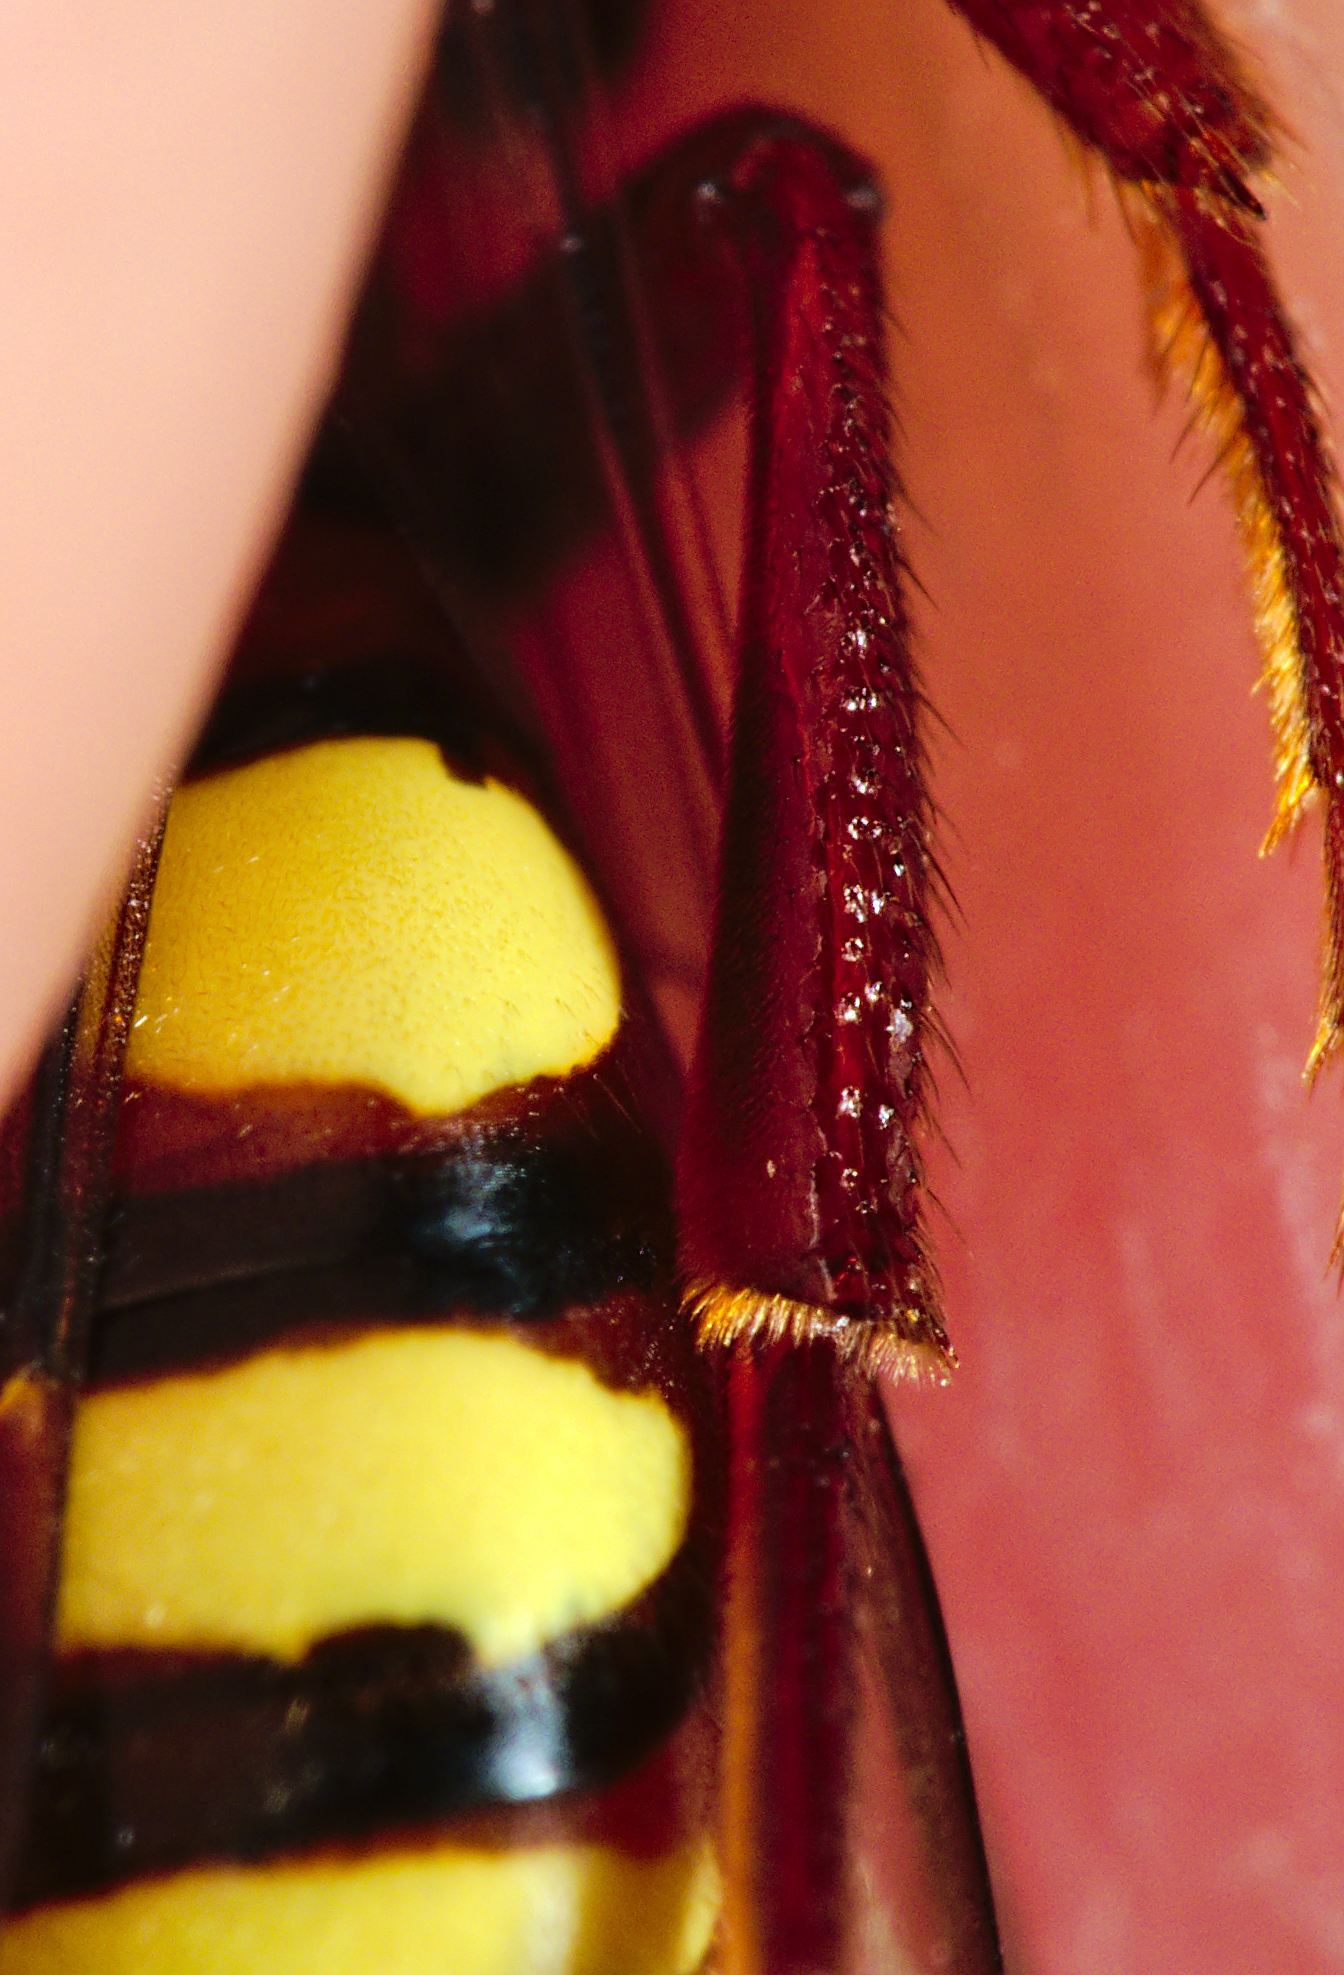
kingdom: Animalia
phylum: Arthropoda
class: Insecta
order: Hymenoptera
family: Apidae
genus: Nomada
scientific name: Nomada flava
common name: Flavous nomad bee
